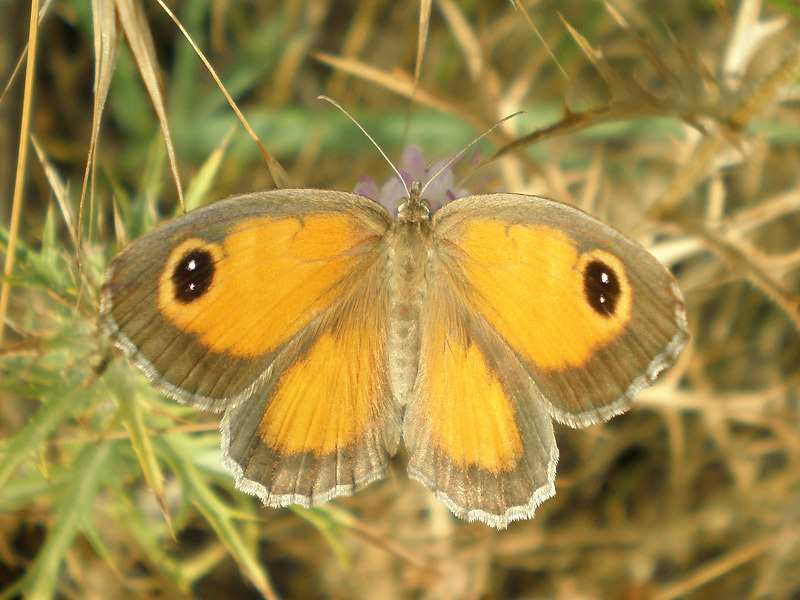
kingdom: Animalia
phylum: Arthropoda
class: Insecta
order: Lepidoptera
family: Nymphalidae
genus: Pyronia
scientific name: Pyronia cecilia
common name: Southern gatekeeper
